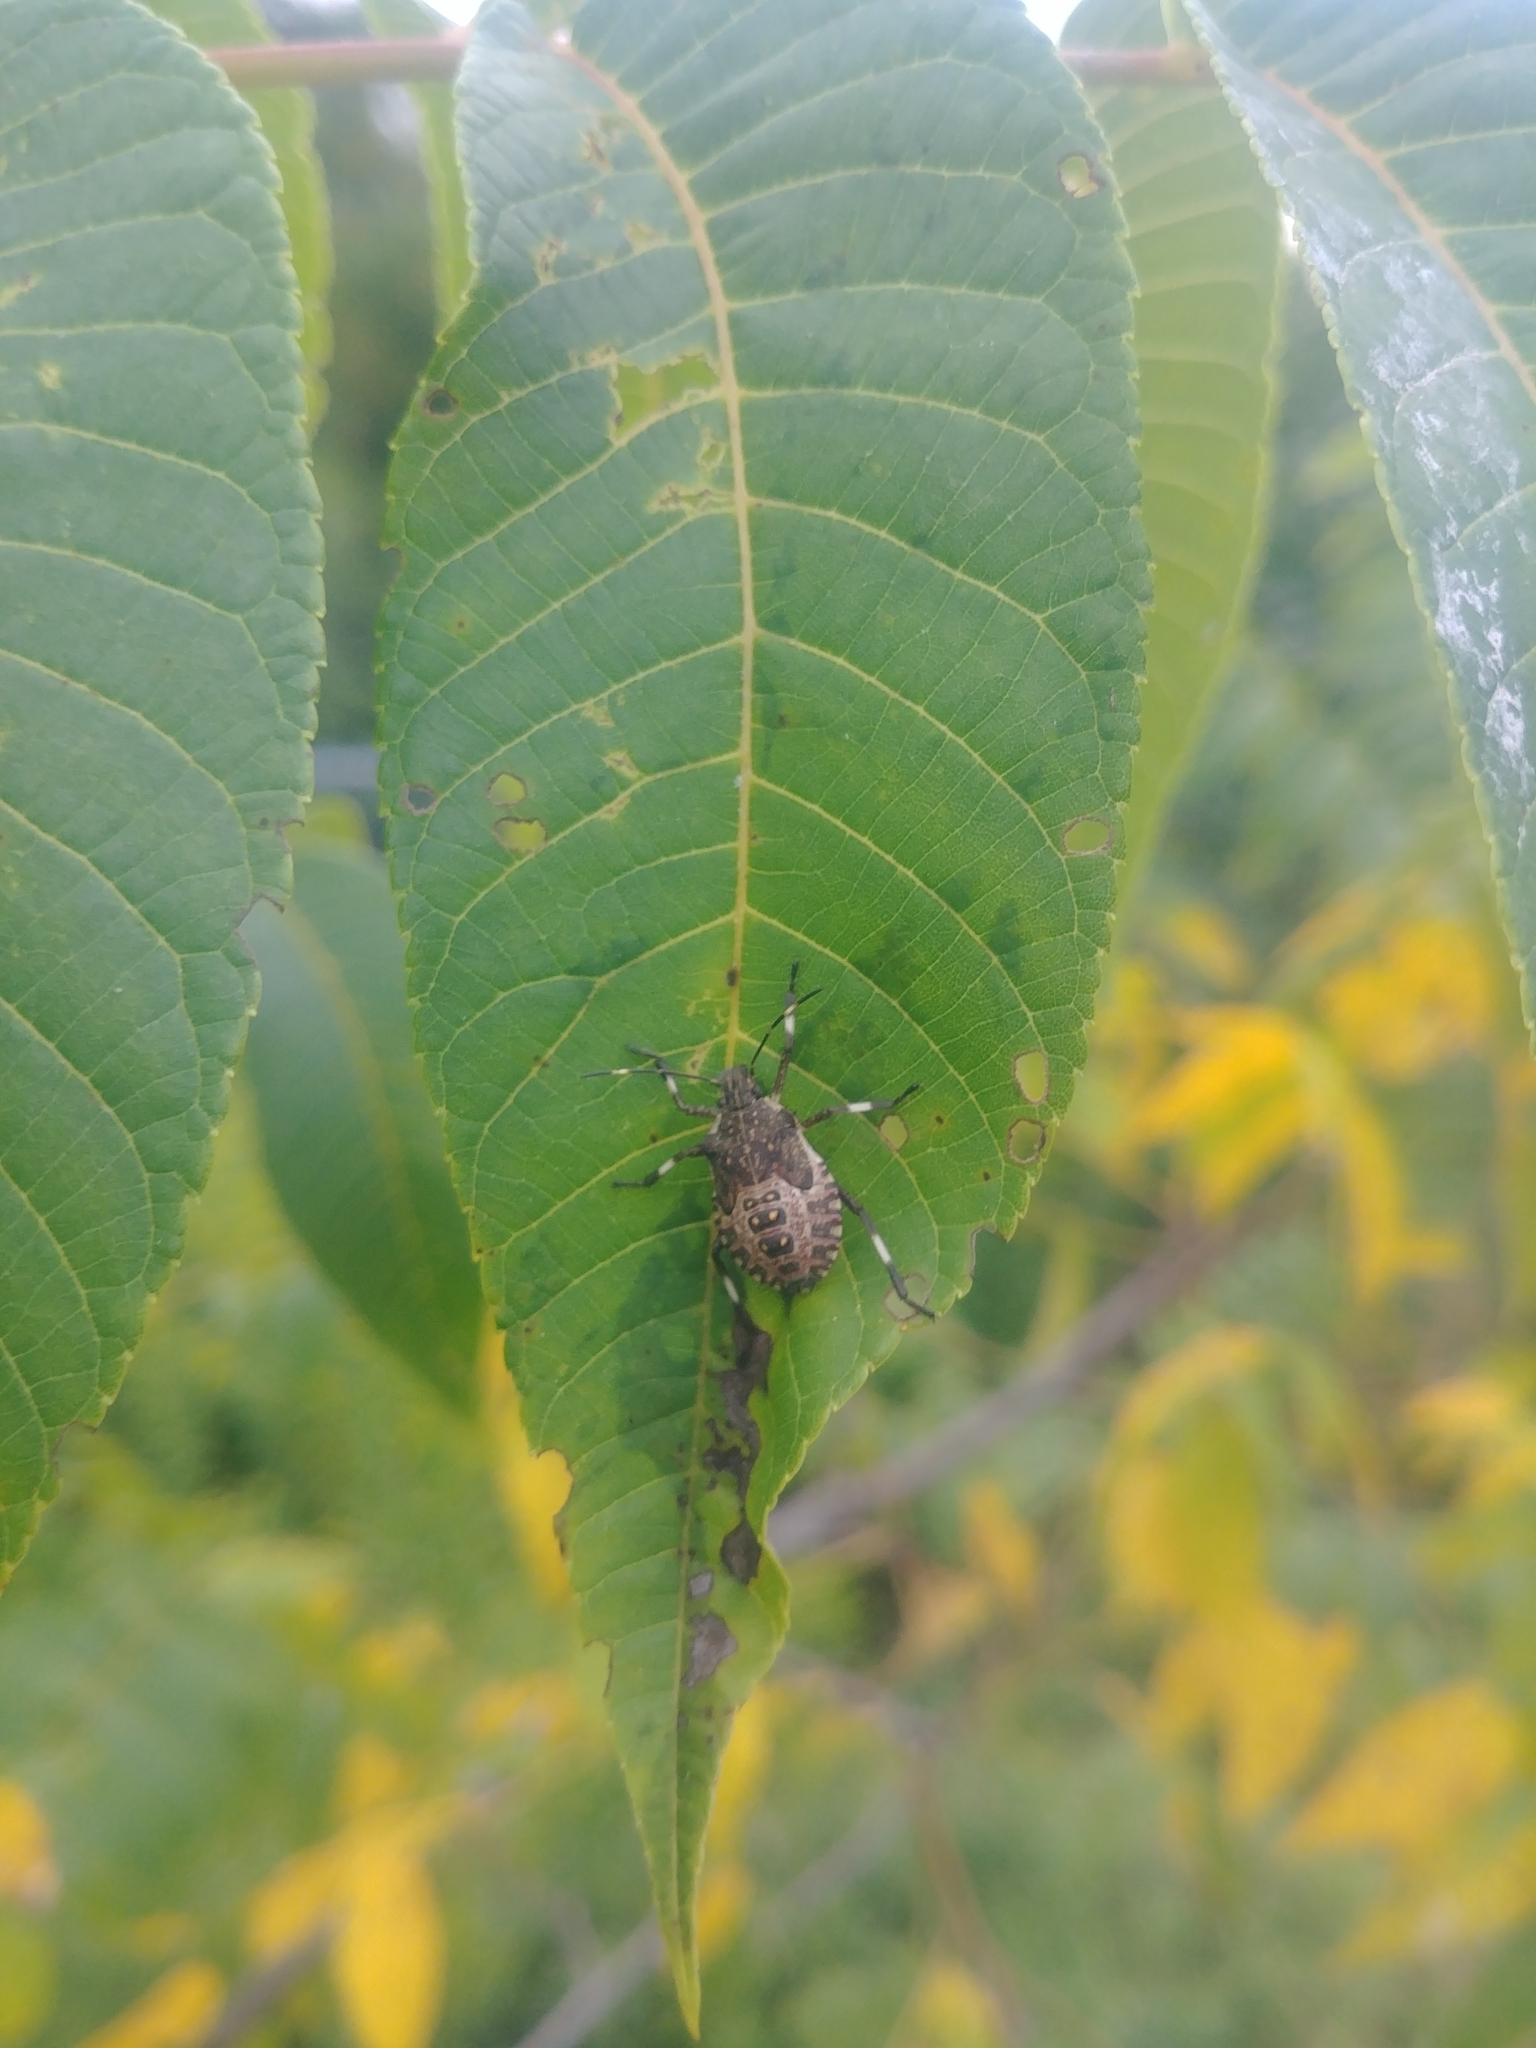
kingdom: Animalia
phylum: Arthropoda
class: Insecta
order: Hemiptera
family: Pentatomidae
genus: Halyomorpha
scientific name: Halyomorpha halys
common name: Brown marmorated stink bug
